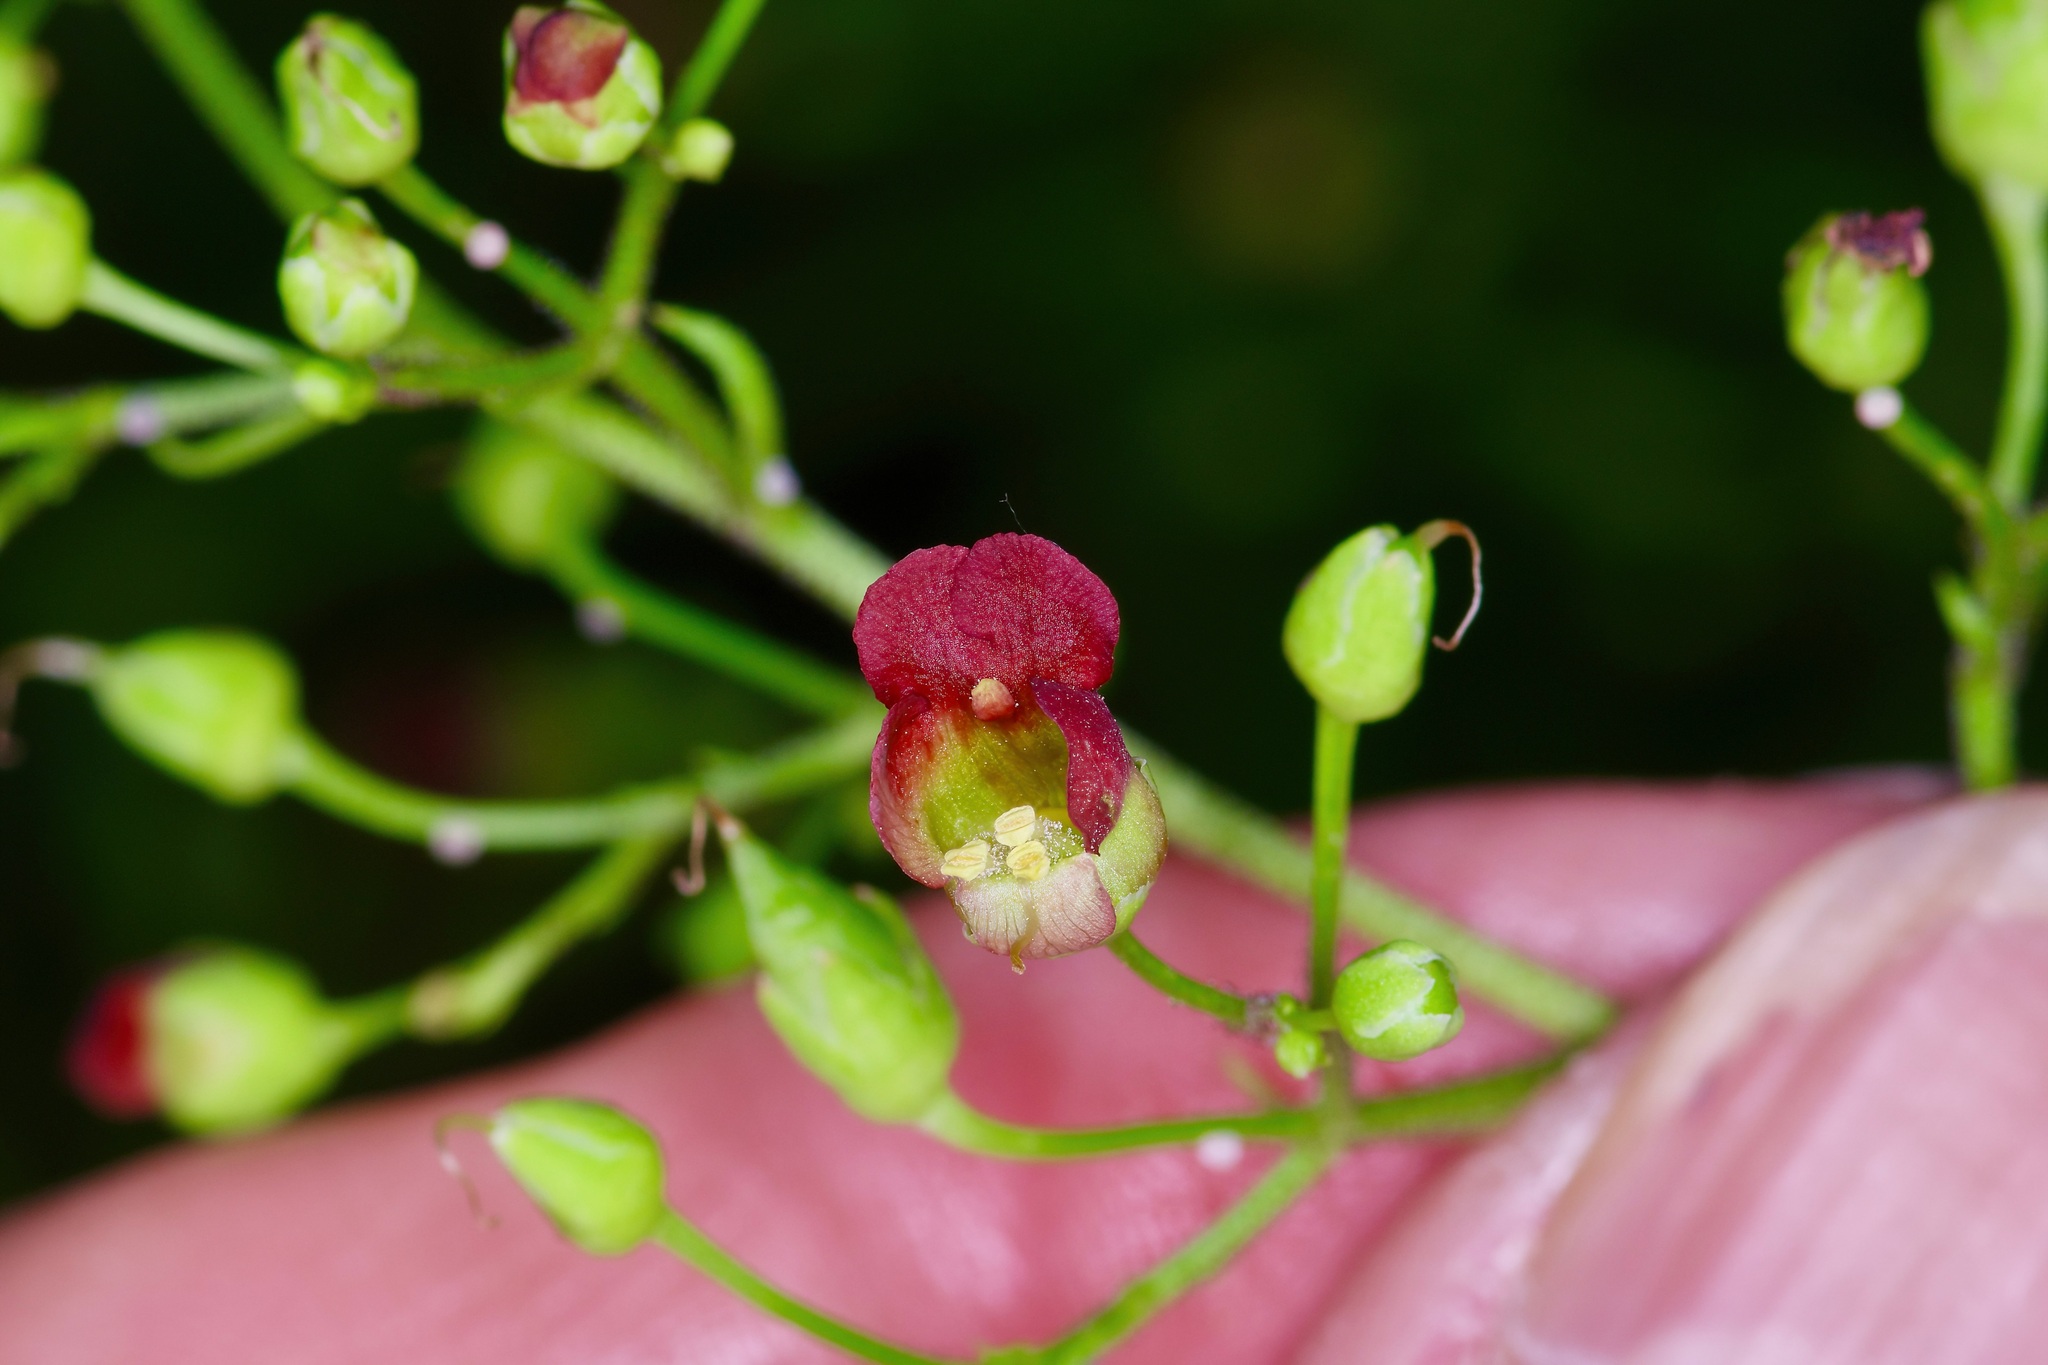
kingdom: Plantae
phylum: Tracheophyta
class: Magnoliopsida
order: Lamiales
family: Scrophulariaceae
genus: Scrophularia
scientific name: Scrophularia parviflora
